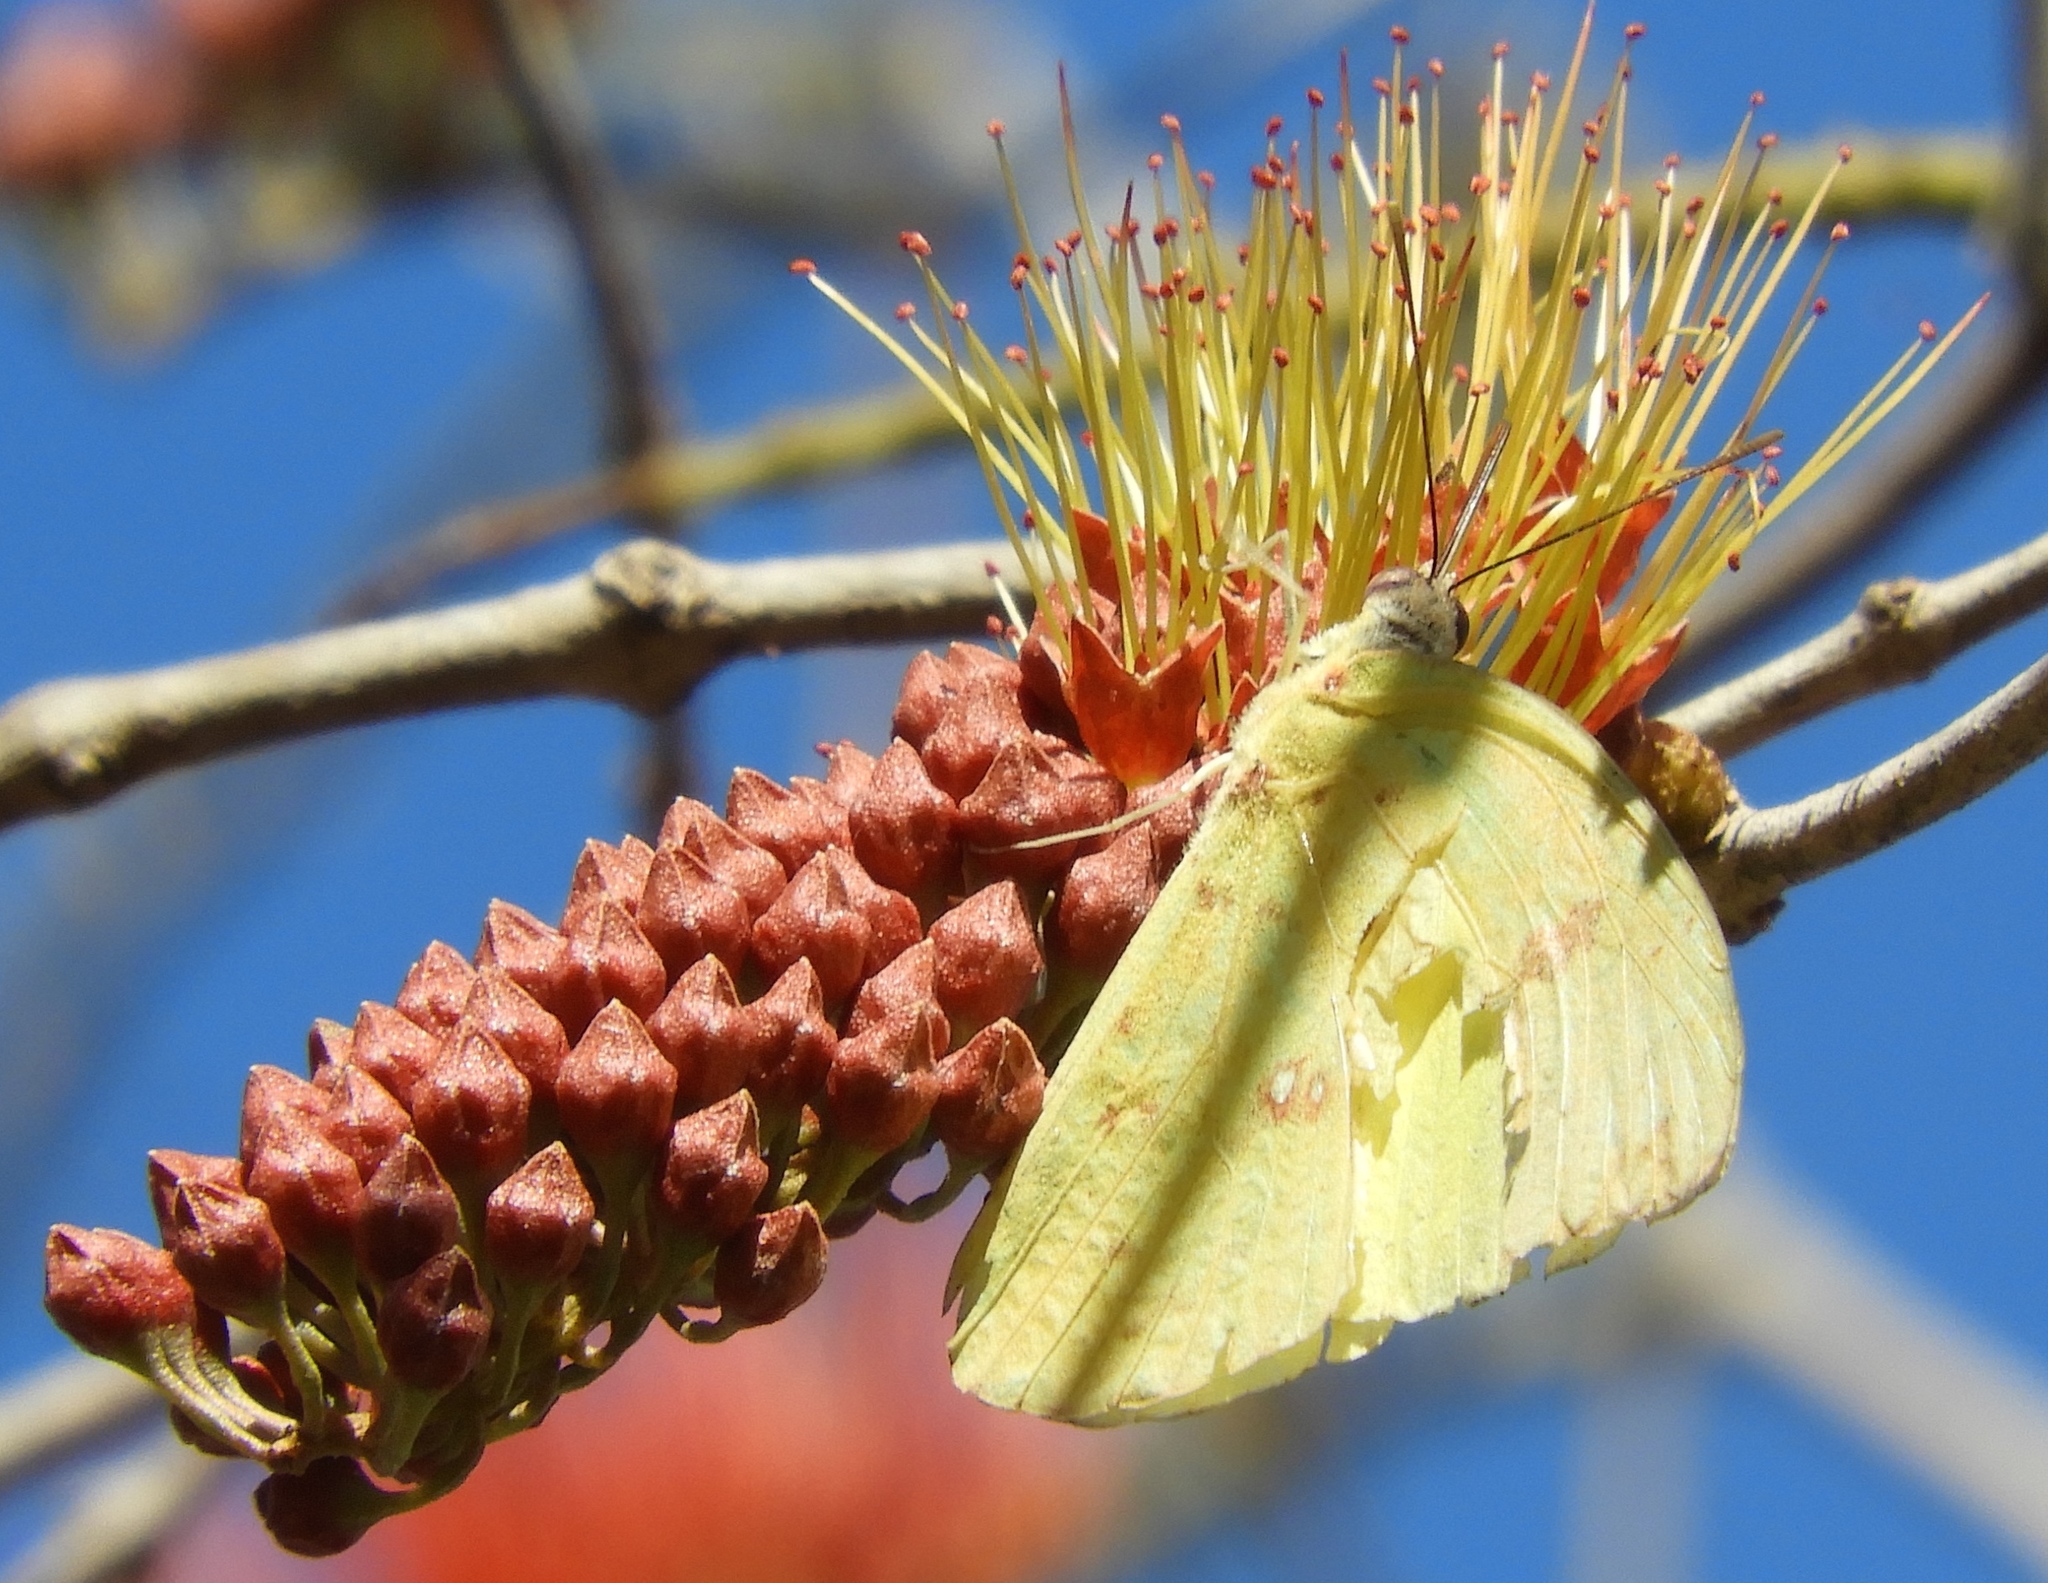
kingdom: Animalia
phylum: Arthropoda
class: Insecta
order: Lepidoptera
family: Pieridae
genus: Phoebis
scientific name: Phoebis marcellina
